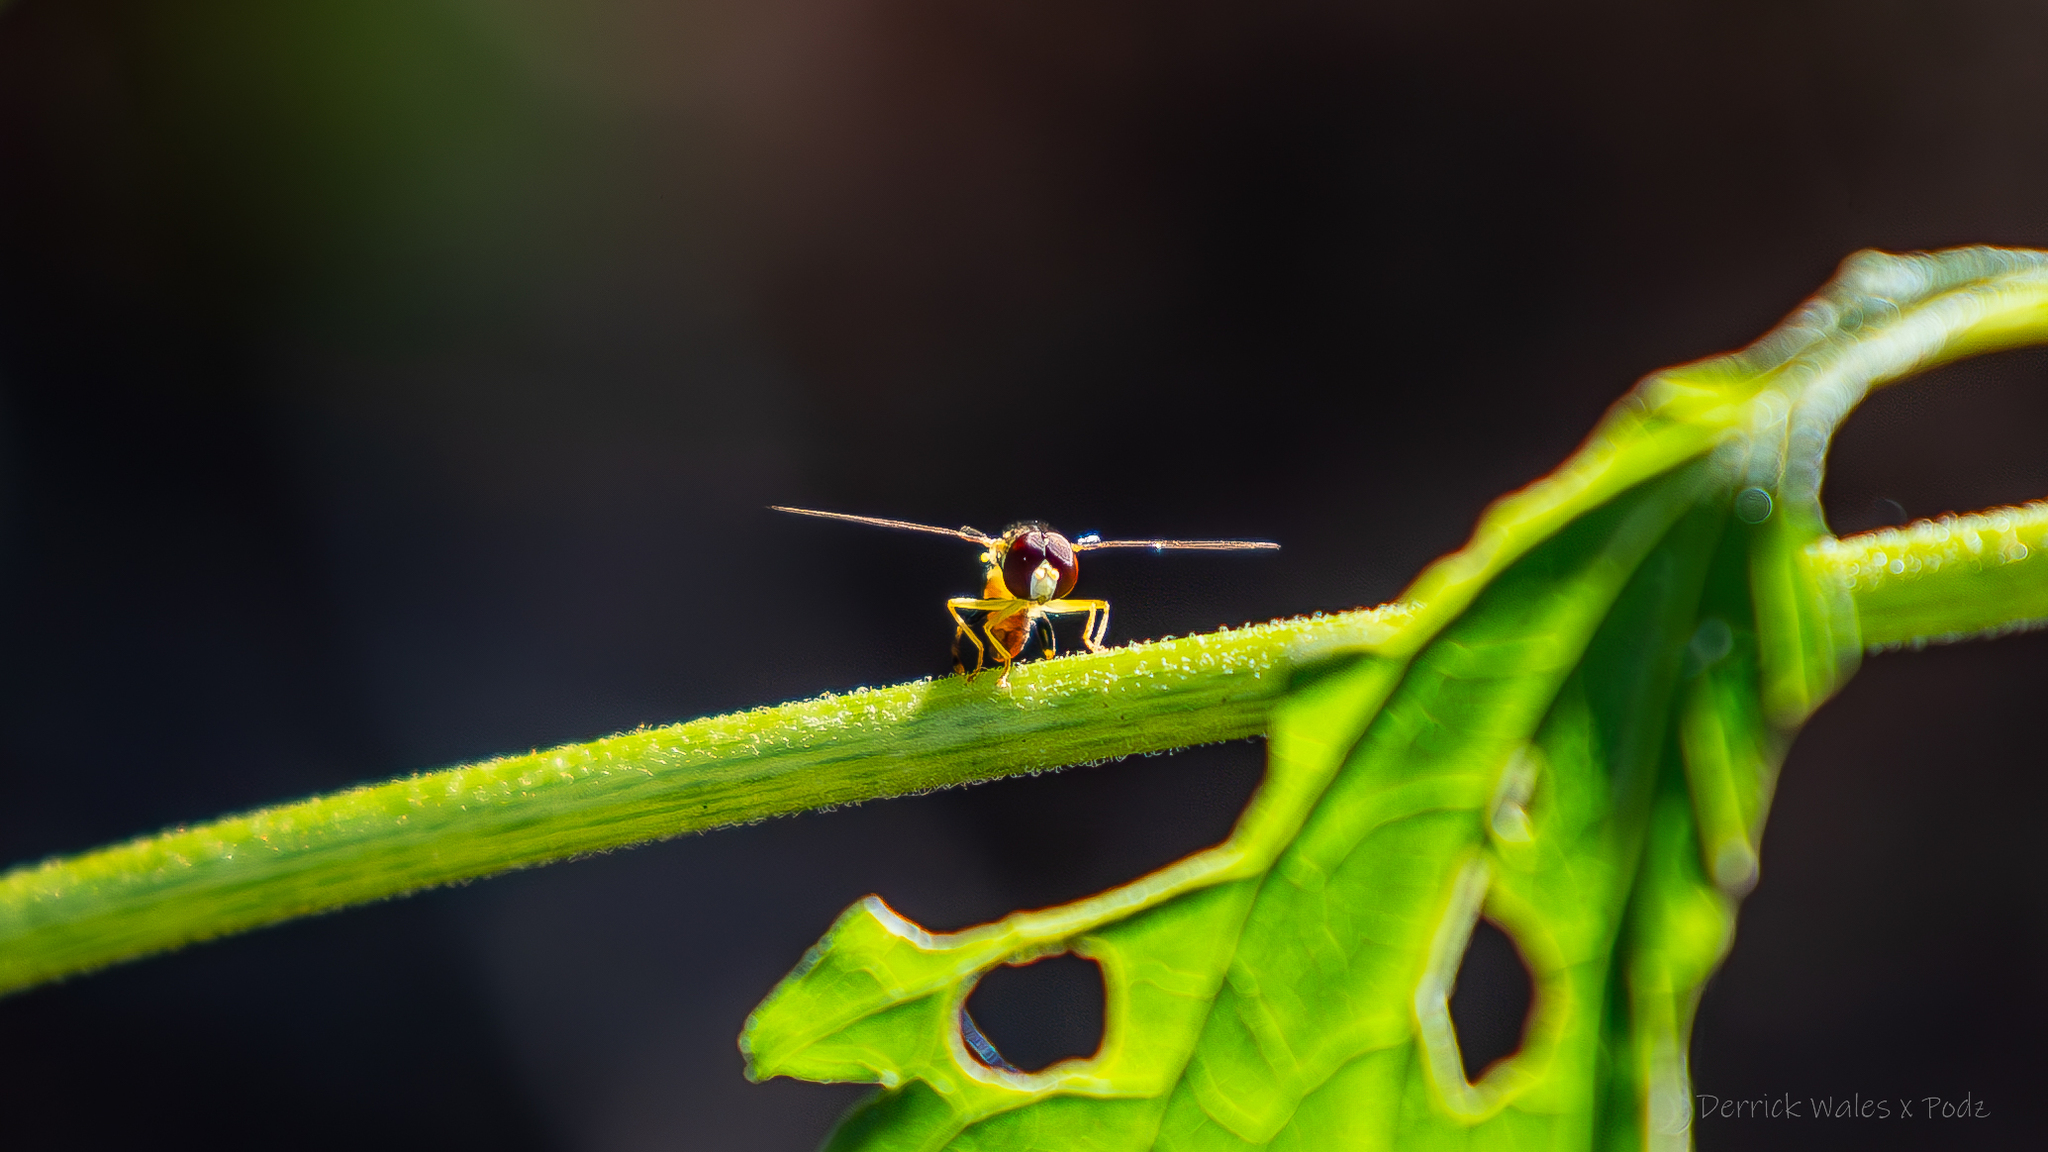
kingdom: Animalia
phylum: Arthropoda
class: Insecta
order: Diptera
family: Syrphidae
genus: Toxomerus
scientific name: Toxomerus geminatus
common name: Eastern calligrapher
